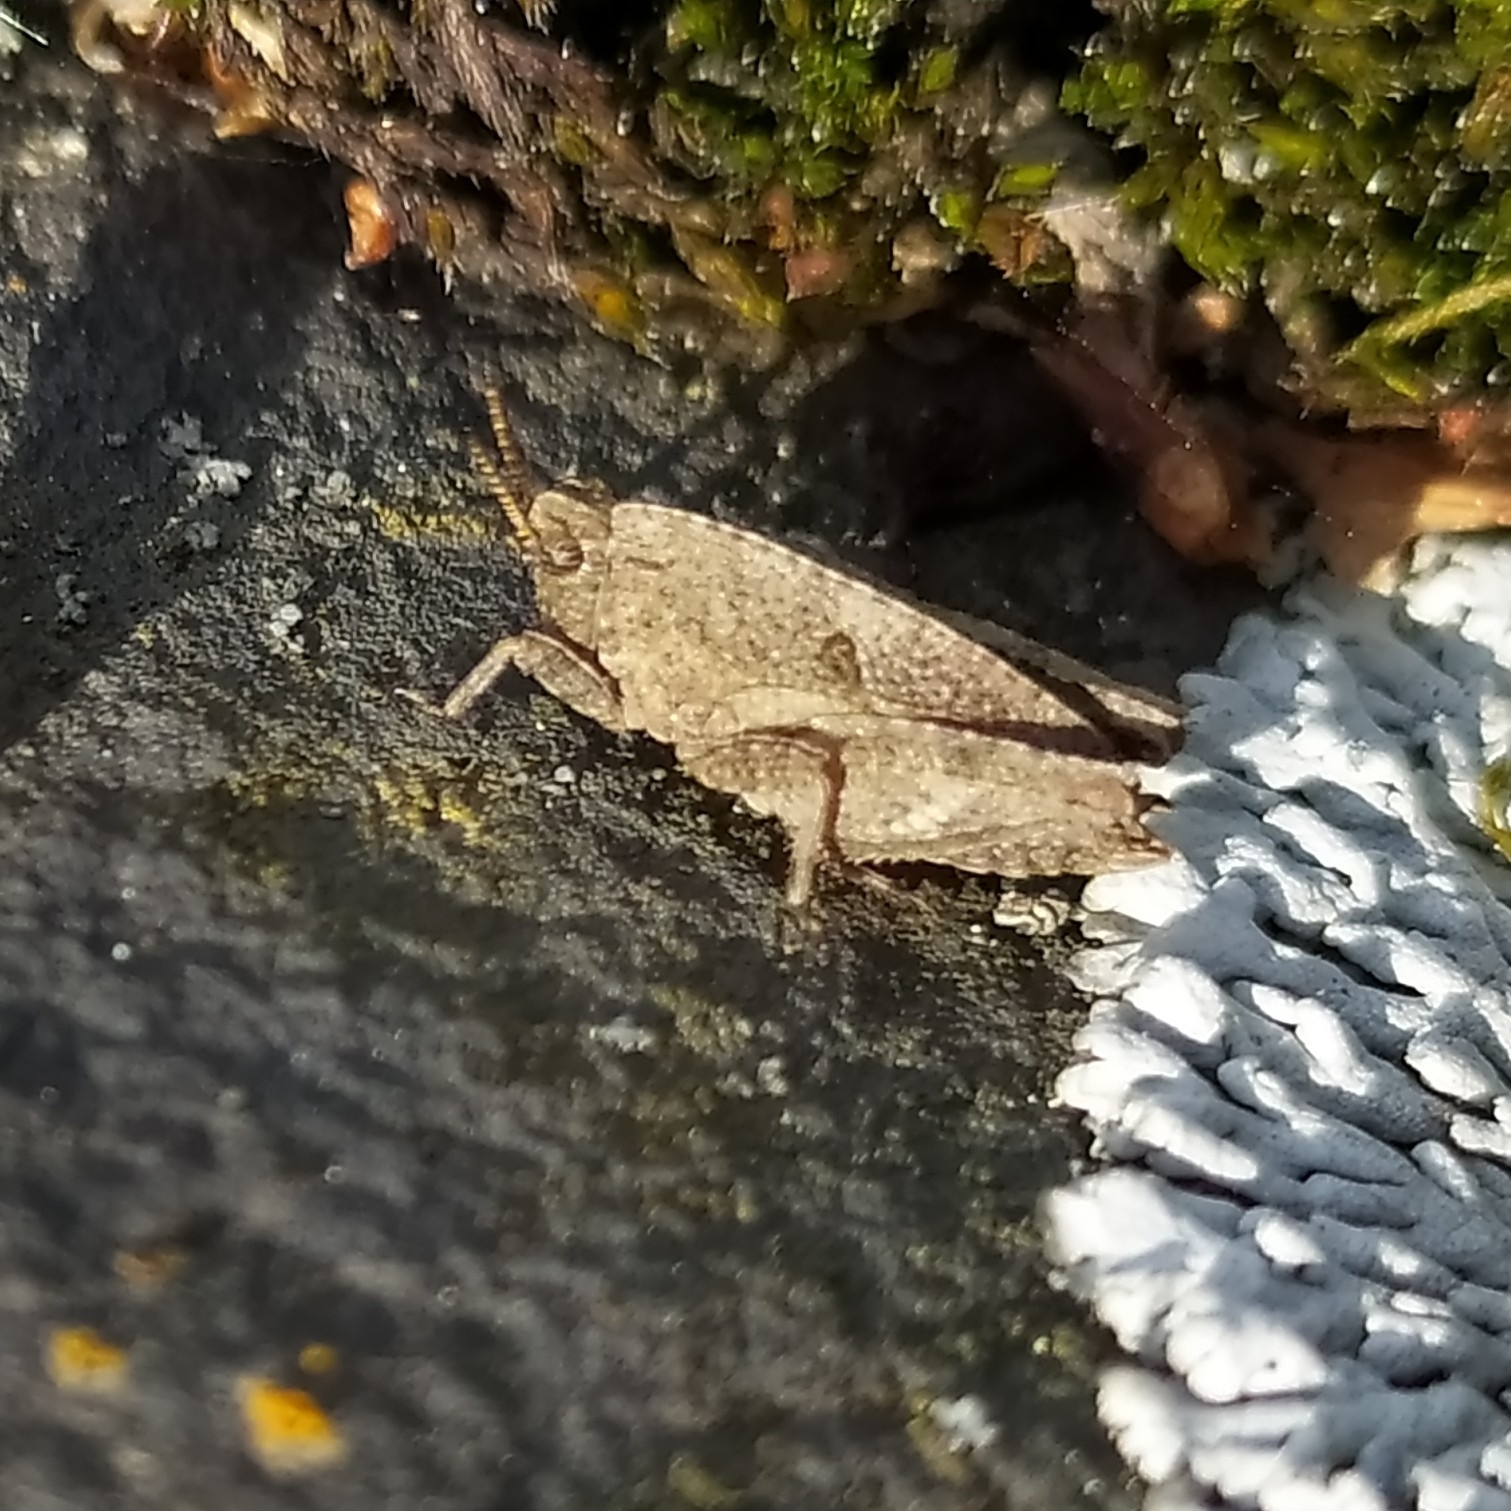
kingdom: Animalia
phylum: Arthropoda
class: Insecta
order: Orthoptera
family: Tetrigidae
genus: Tetrix
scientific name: Tetrix bipunctata
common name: Two-spotted groundhopper
